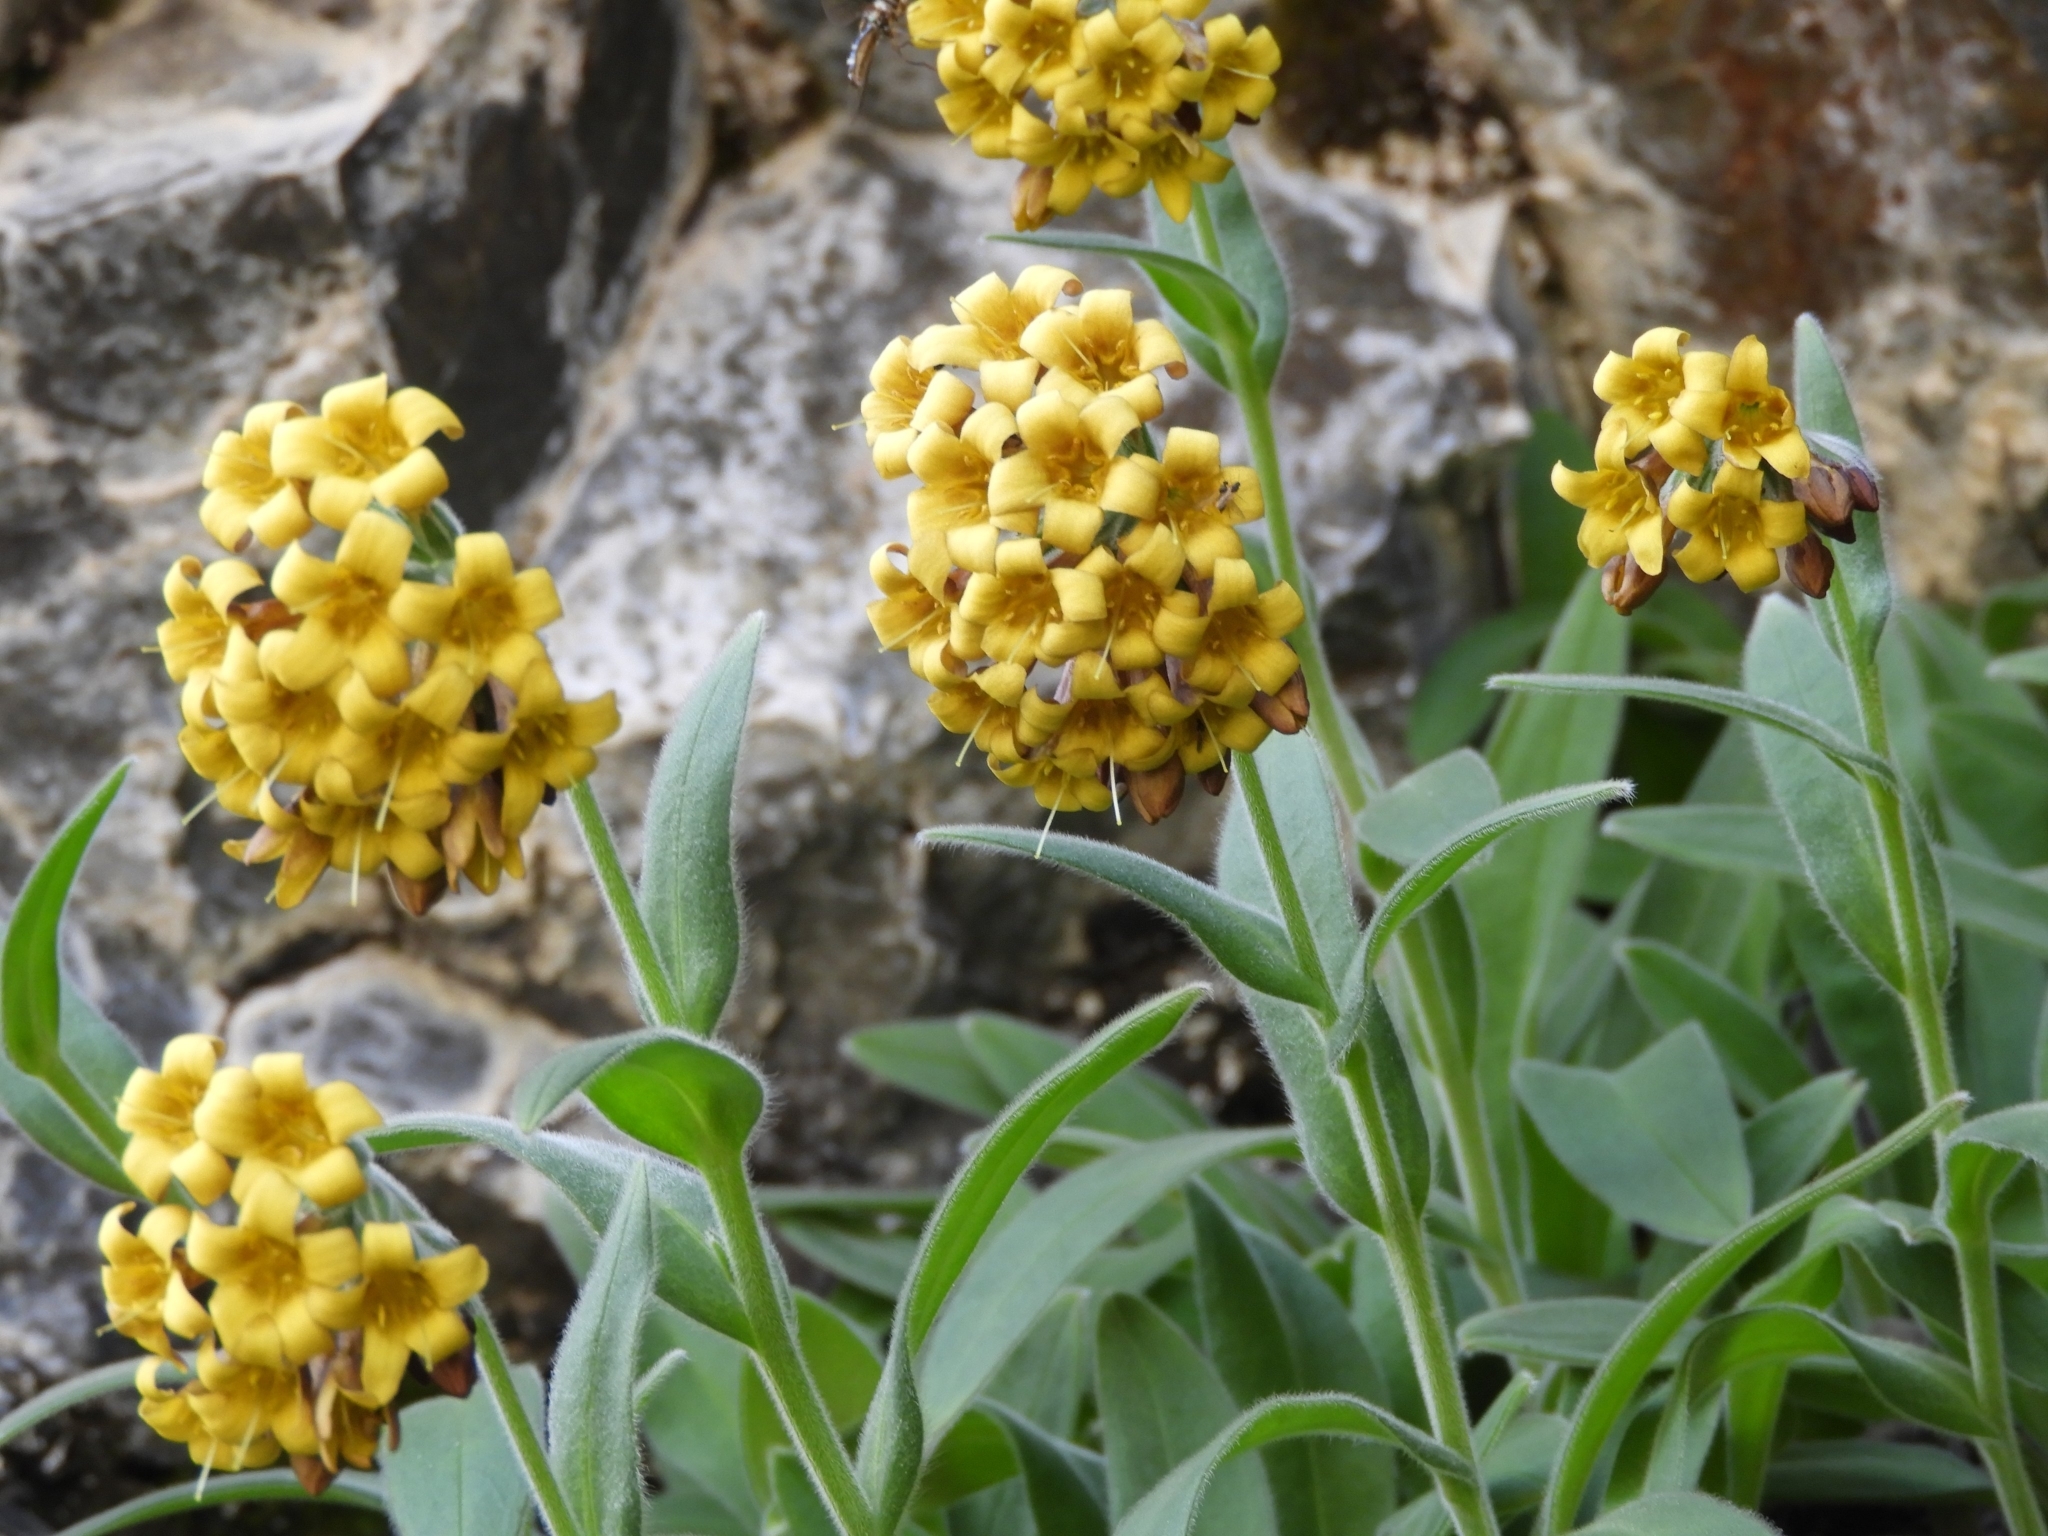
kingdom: Plantae
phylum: Tracheophyta
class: Magnoliopsida
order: Boraginales
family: Boraginaceae
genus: Myosotis
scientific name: Myosotis macrantha
